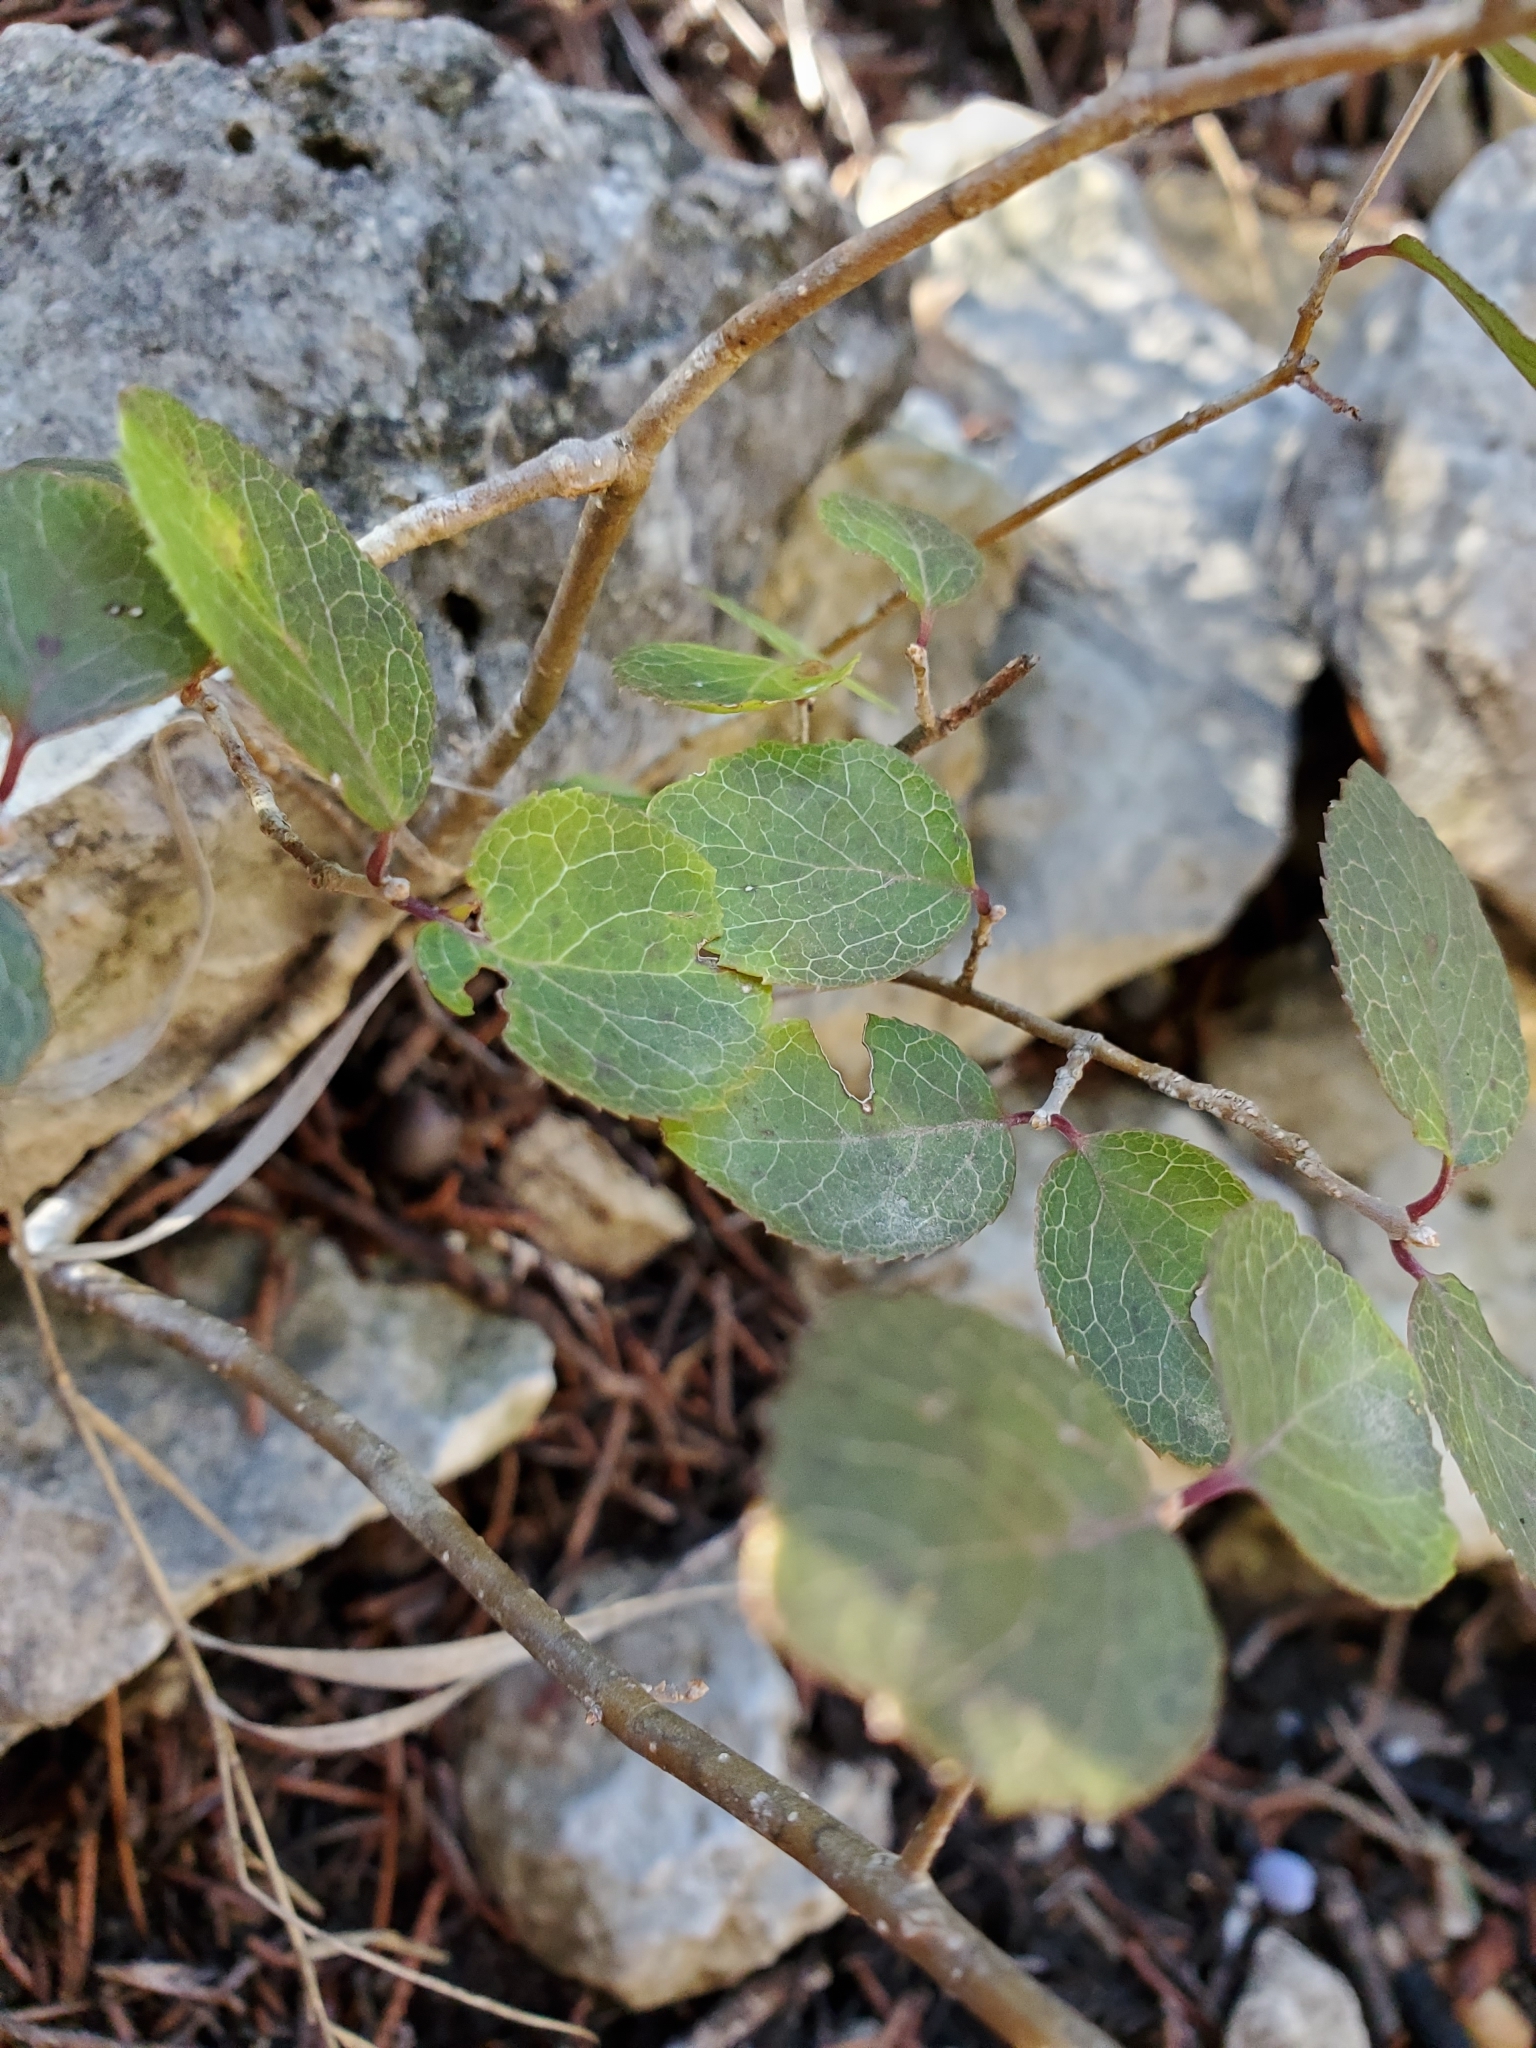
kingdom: Plantae
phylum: Tracheophyta
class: Magnoliopsida
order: Lamiales
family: Oleaceae
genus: Forestiera
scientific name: Forestiera reticulata
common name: Netleaf swamp-privet
